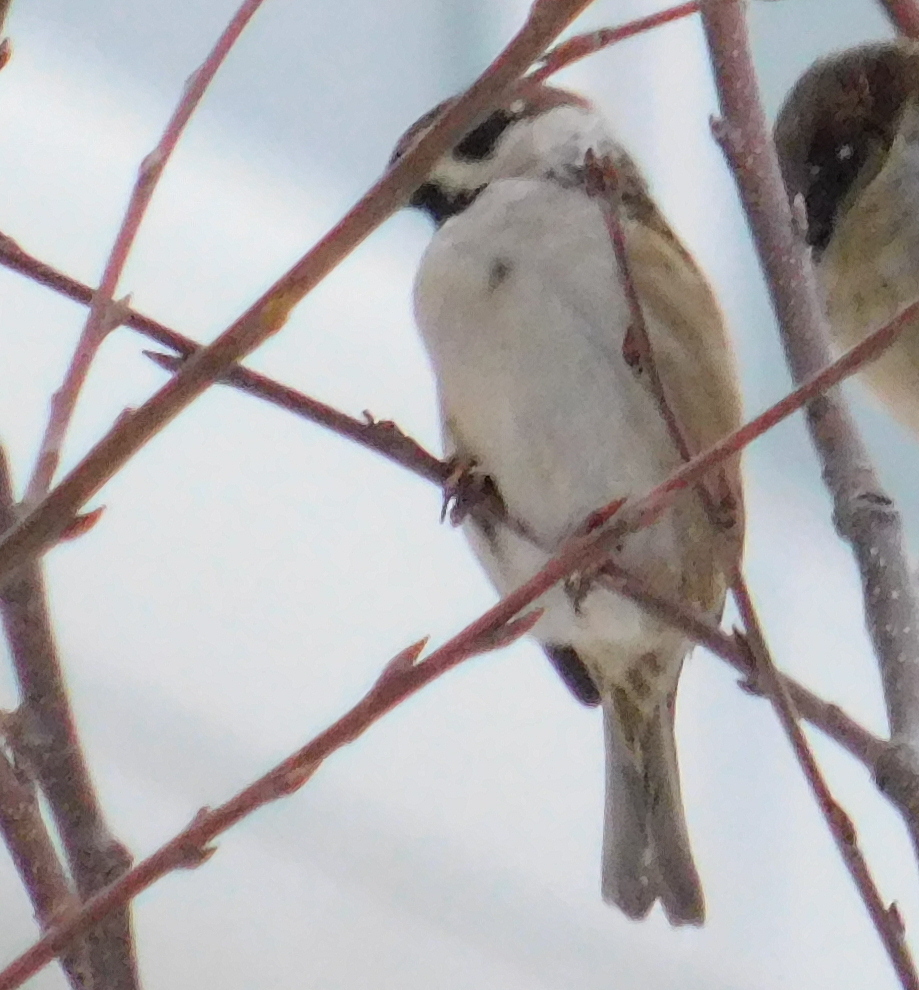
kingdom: Animalia
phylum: Chordata
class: Aves
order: Passeriformes
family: Passeridae
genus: Passer
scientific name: Passer montanus
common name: Eurasian tree sparrow
